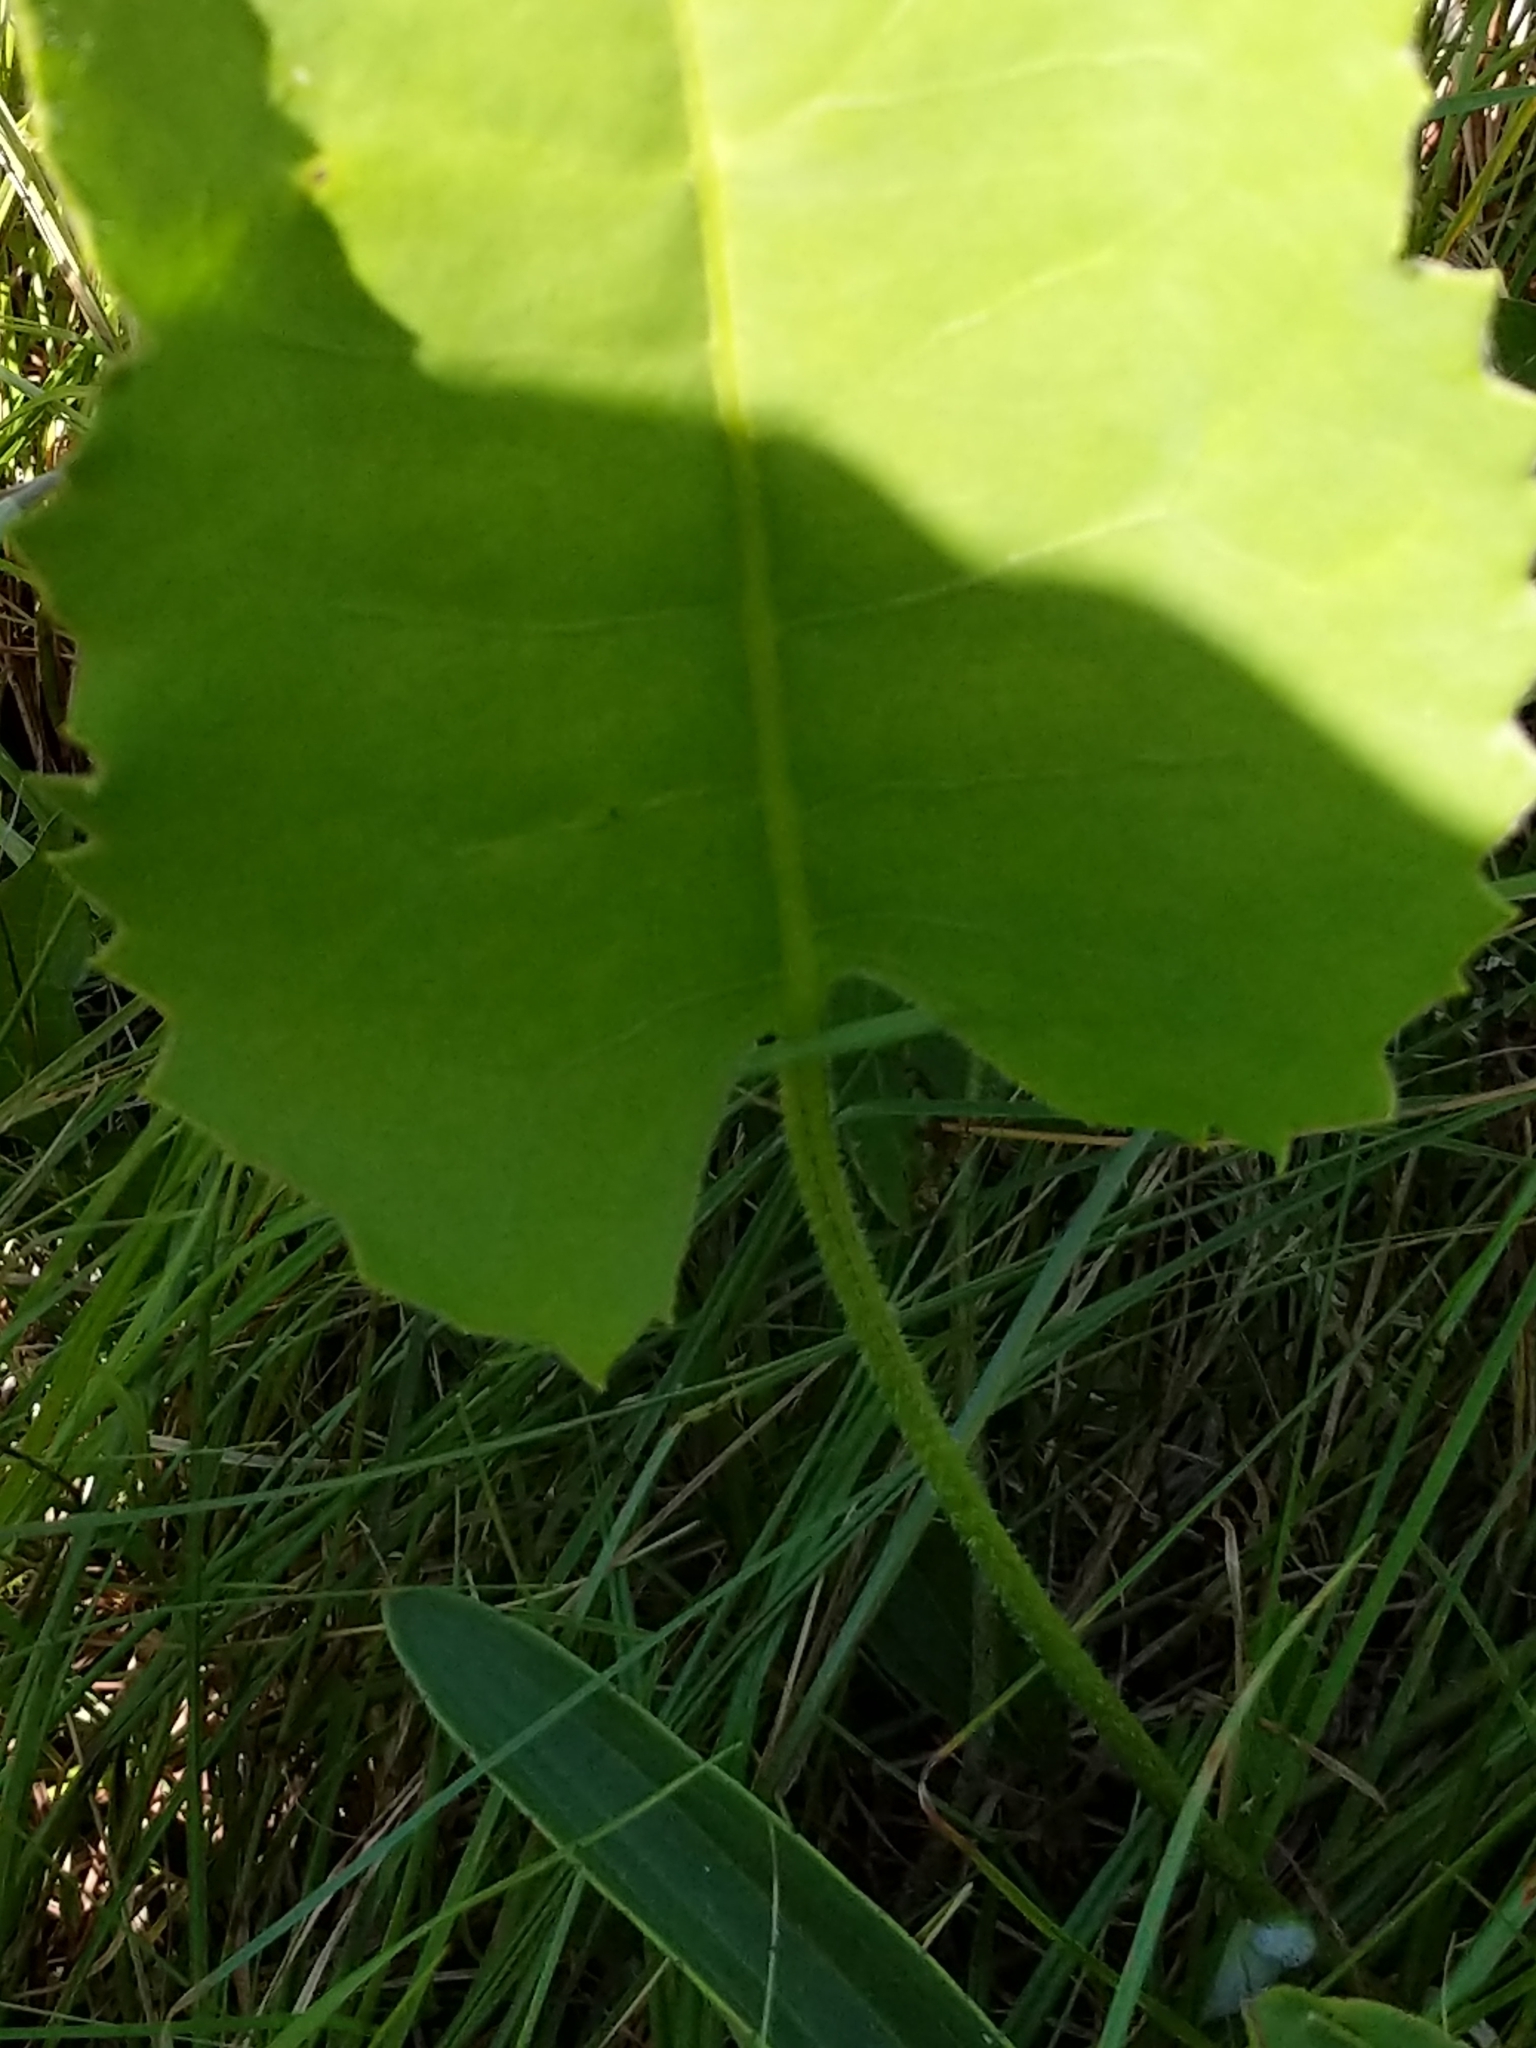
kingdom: Plantae
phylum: Tracheophyta
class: Magnoliopsida
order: Asterales
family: Asteraceae
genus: Silphium
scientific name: Silphium terebinthinaceum
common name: Basal-leaf rosinweed
